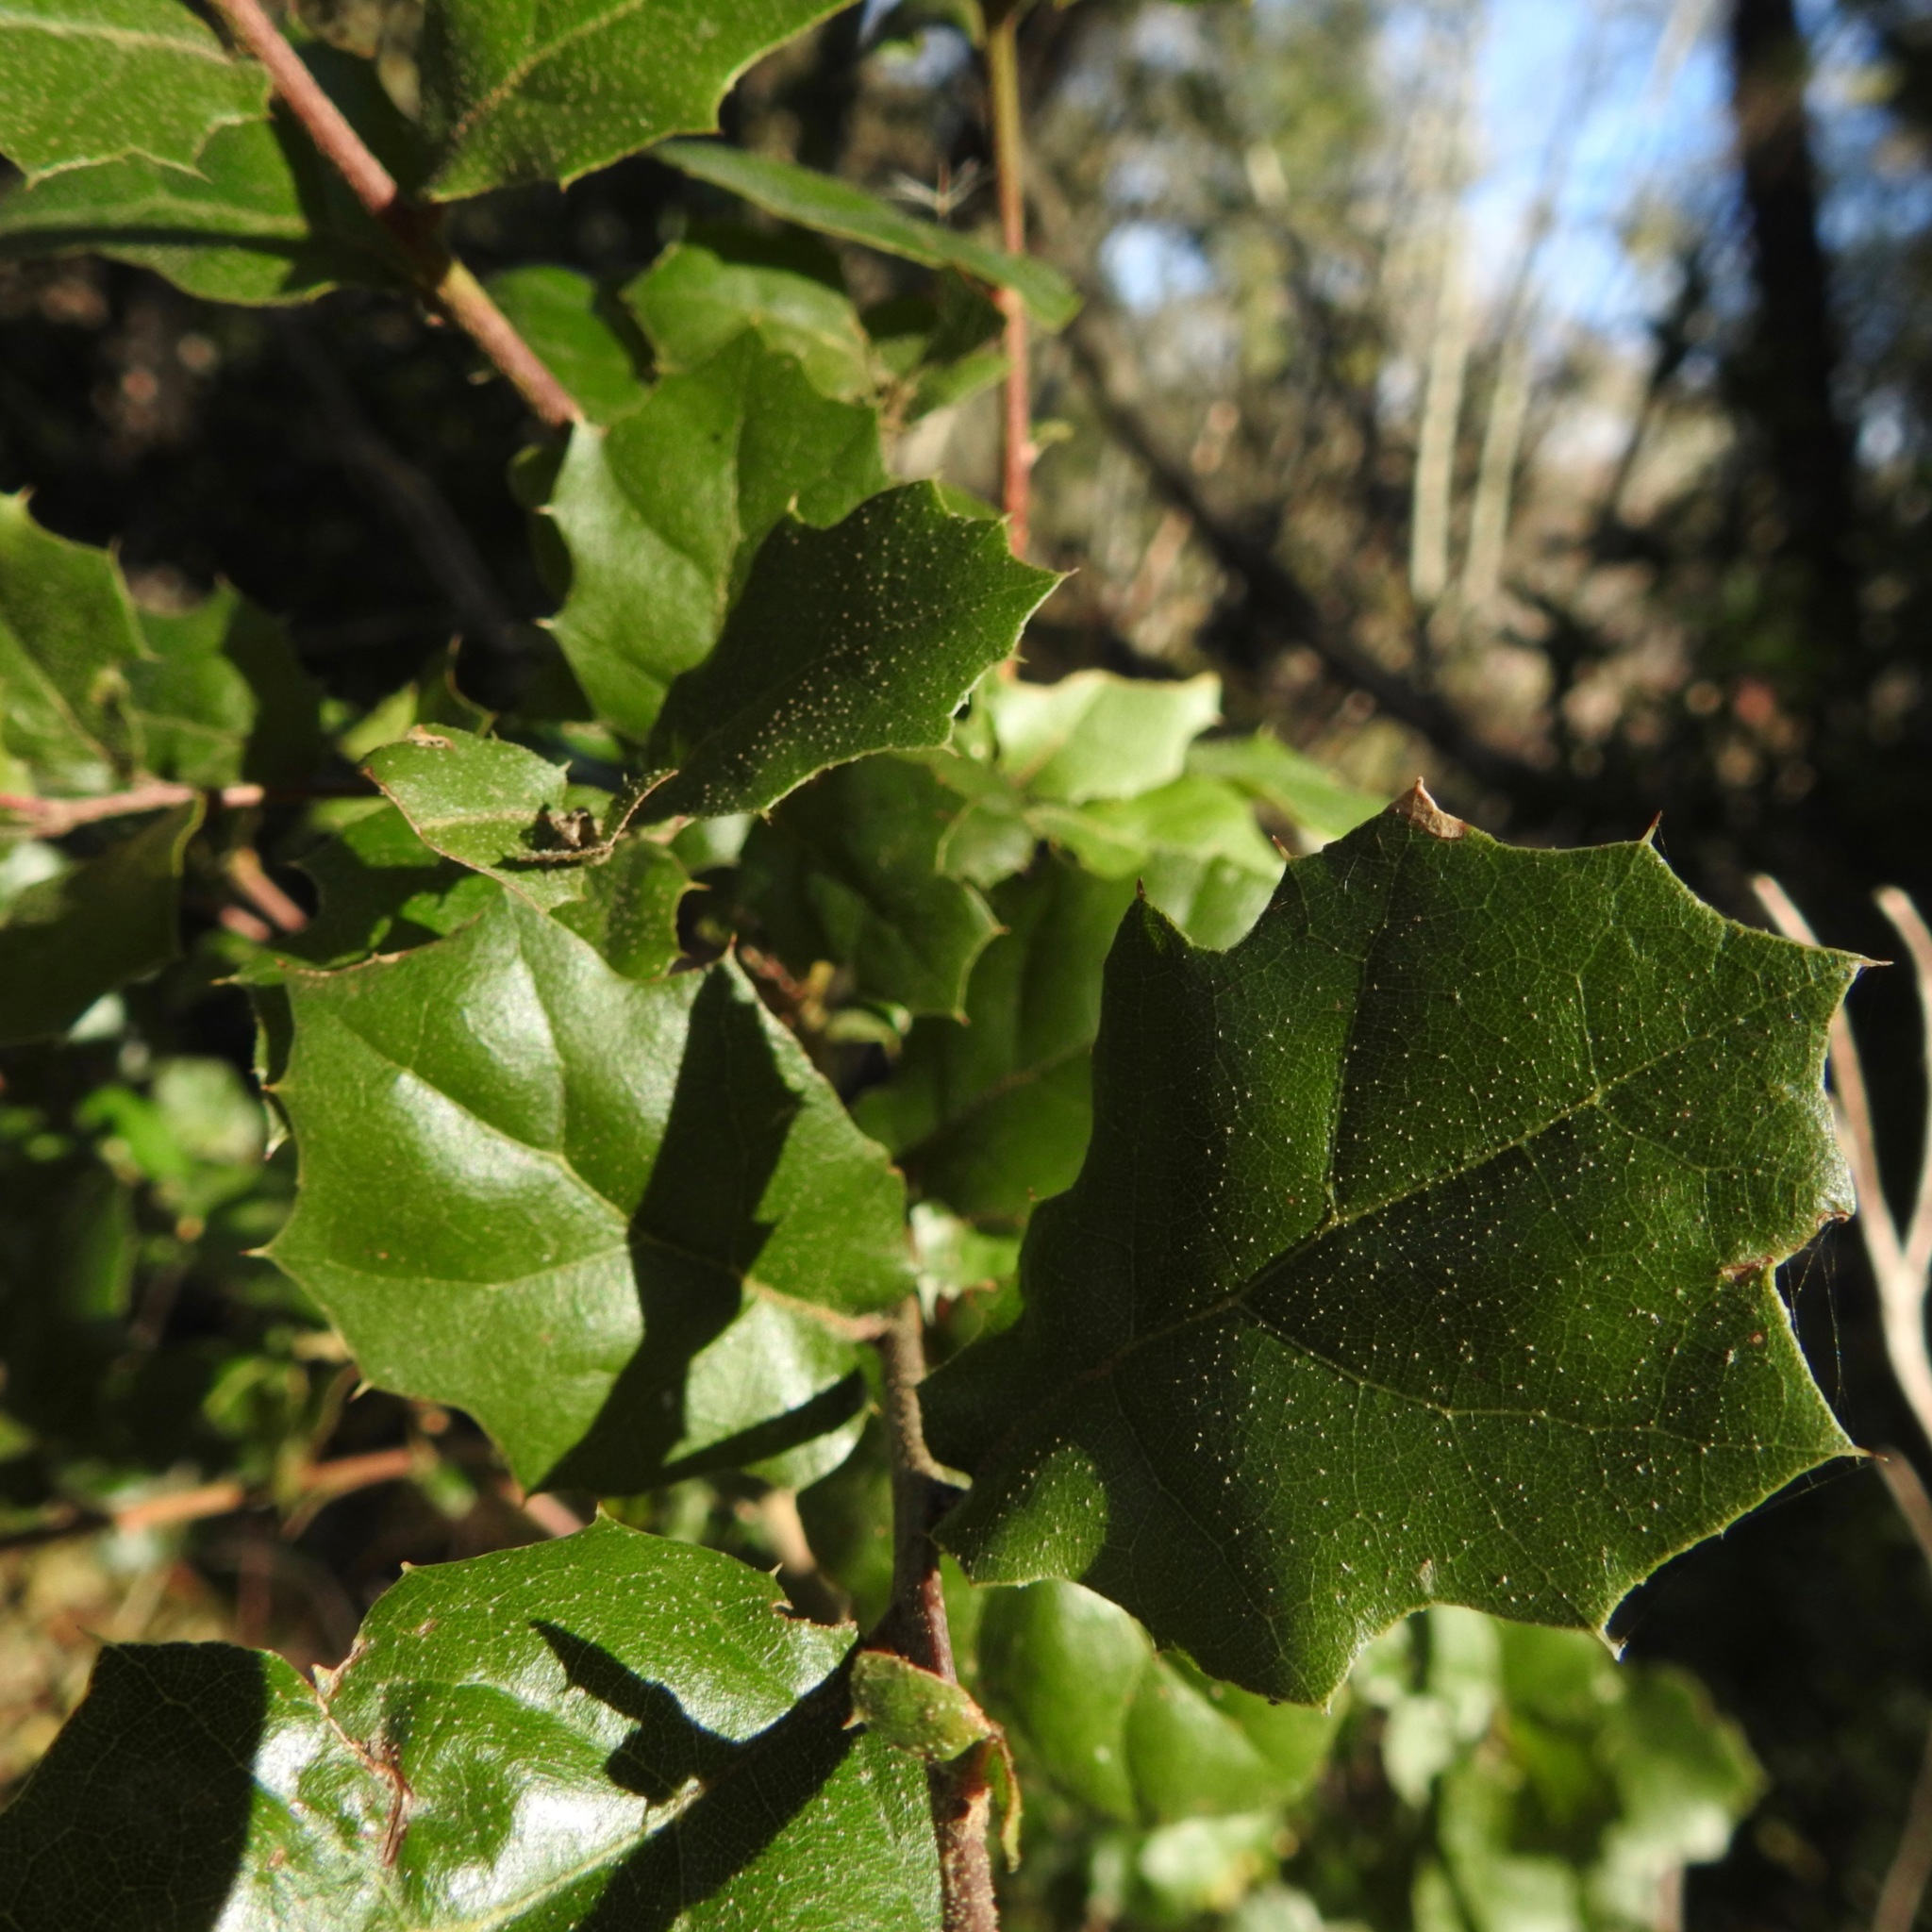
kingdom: Plantae
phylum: Tracheophyta
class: Magnoliopsida
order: Fagales
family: Fagaceae
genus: Quercus
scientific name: Quercus agrifolia
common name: California live oak
